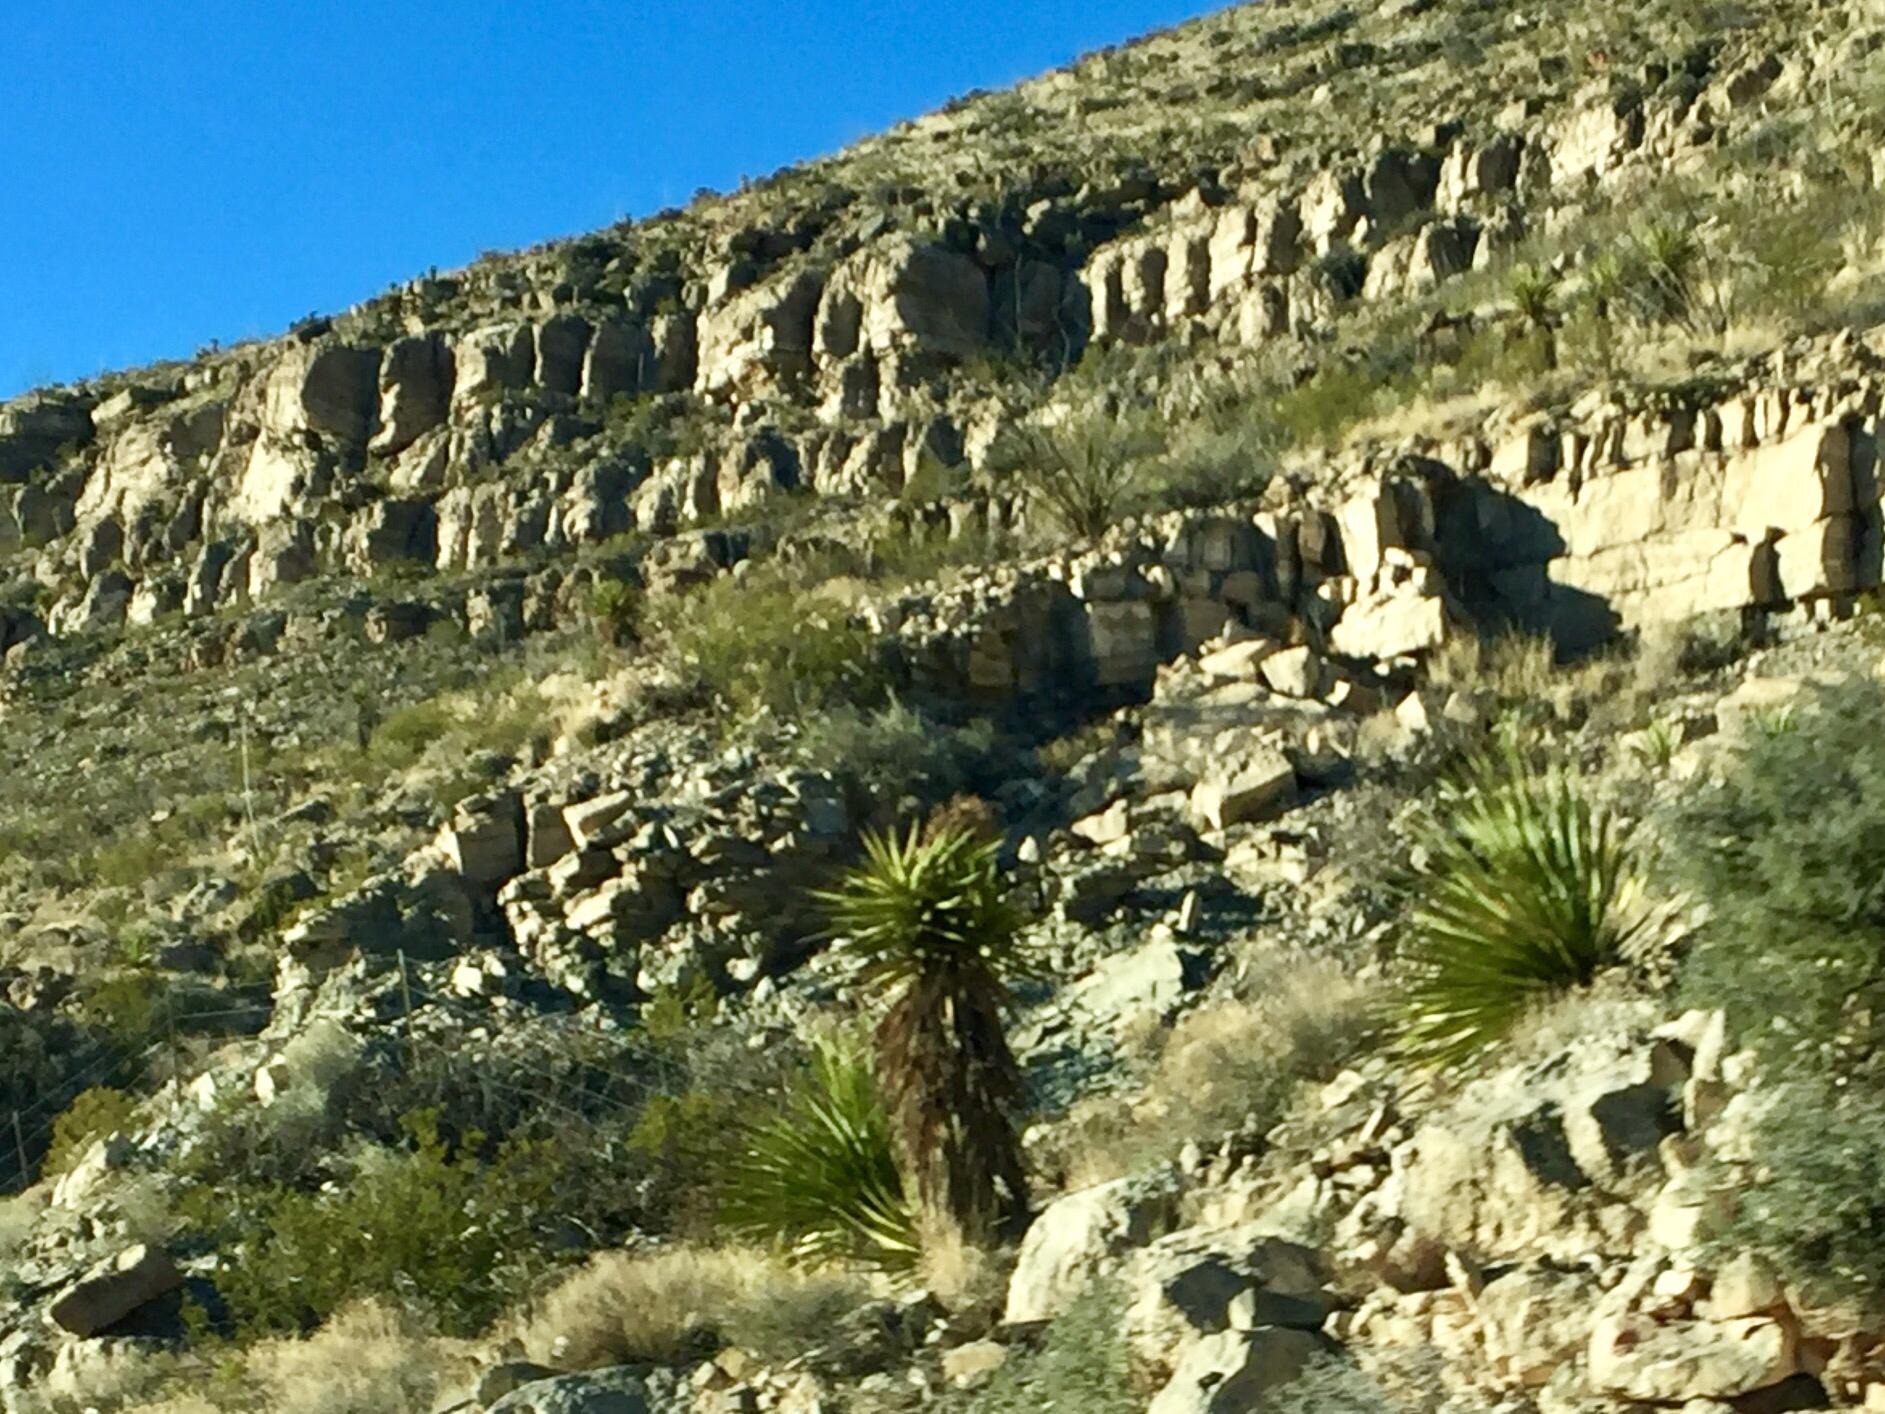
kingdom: Plantae
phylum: Tracheophyta
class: Liliopsida
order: Asparagales
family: Asparagaceae
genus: Yucca
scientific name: Yucca treculiana
